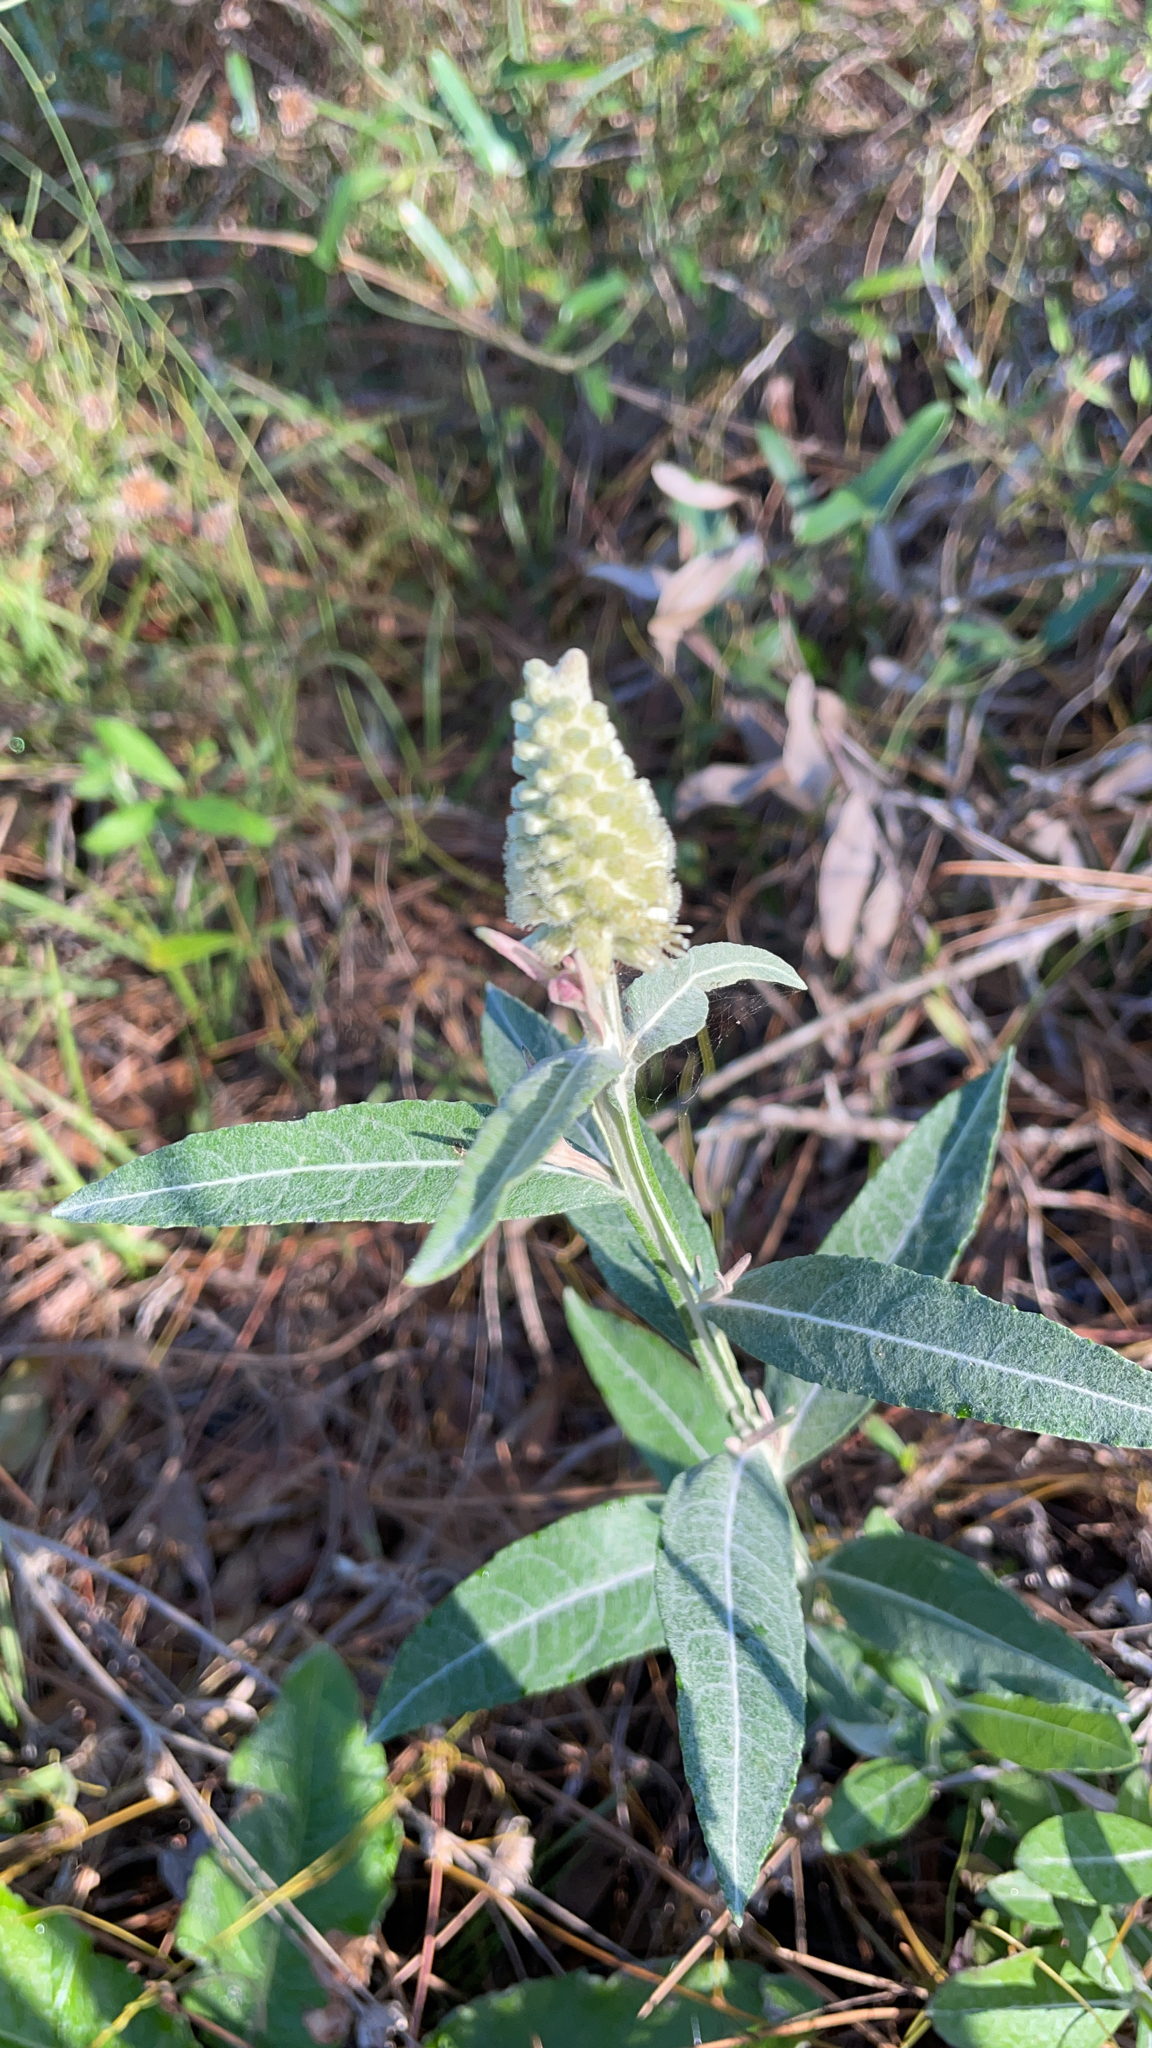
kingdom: Plantae
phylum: Tracheophyta
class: Magnoliopsida
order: Asterales
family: Asteraceae
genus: Pterocaulon
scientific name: Pterocaulon pycnostachyum
